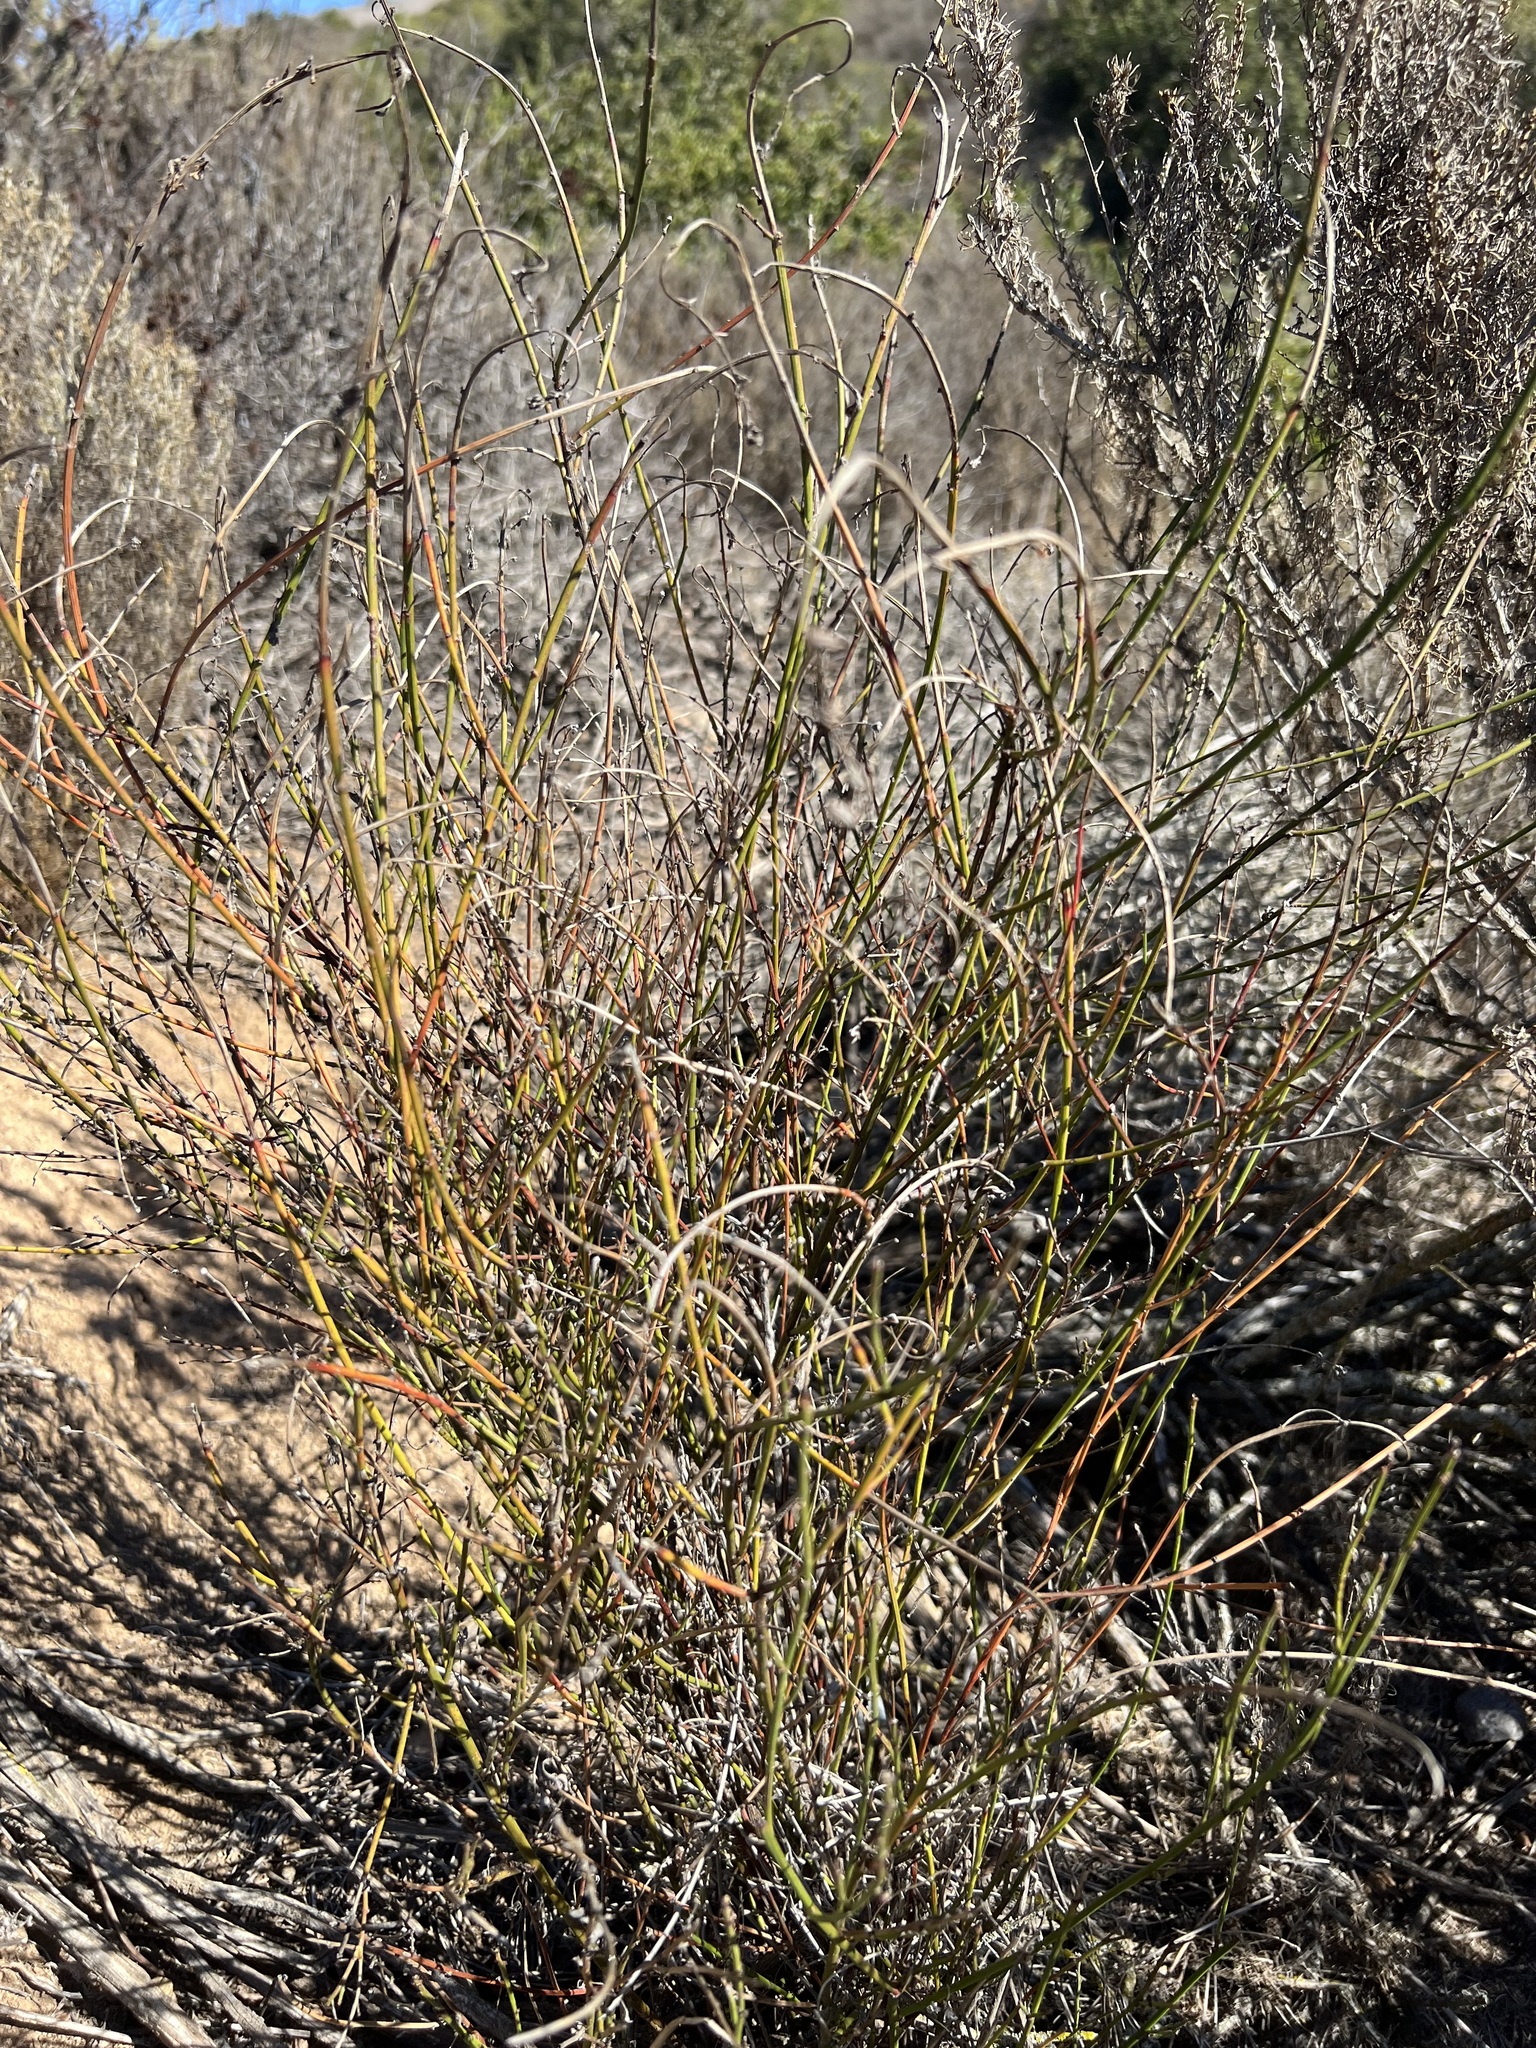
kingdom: Plantae
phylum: Tracheophyta
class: Magnoliopsida
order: Fabales
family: Fabaceae
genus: Acmispon
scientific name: Acmispon glaber
